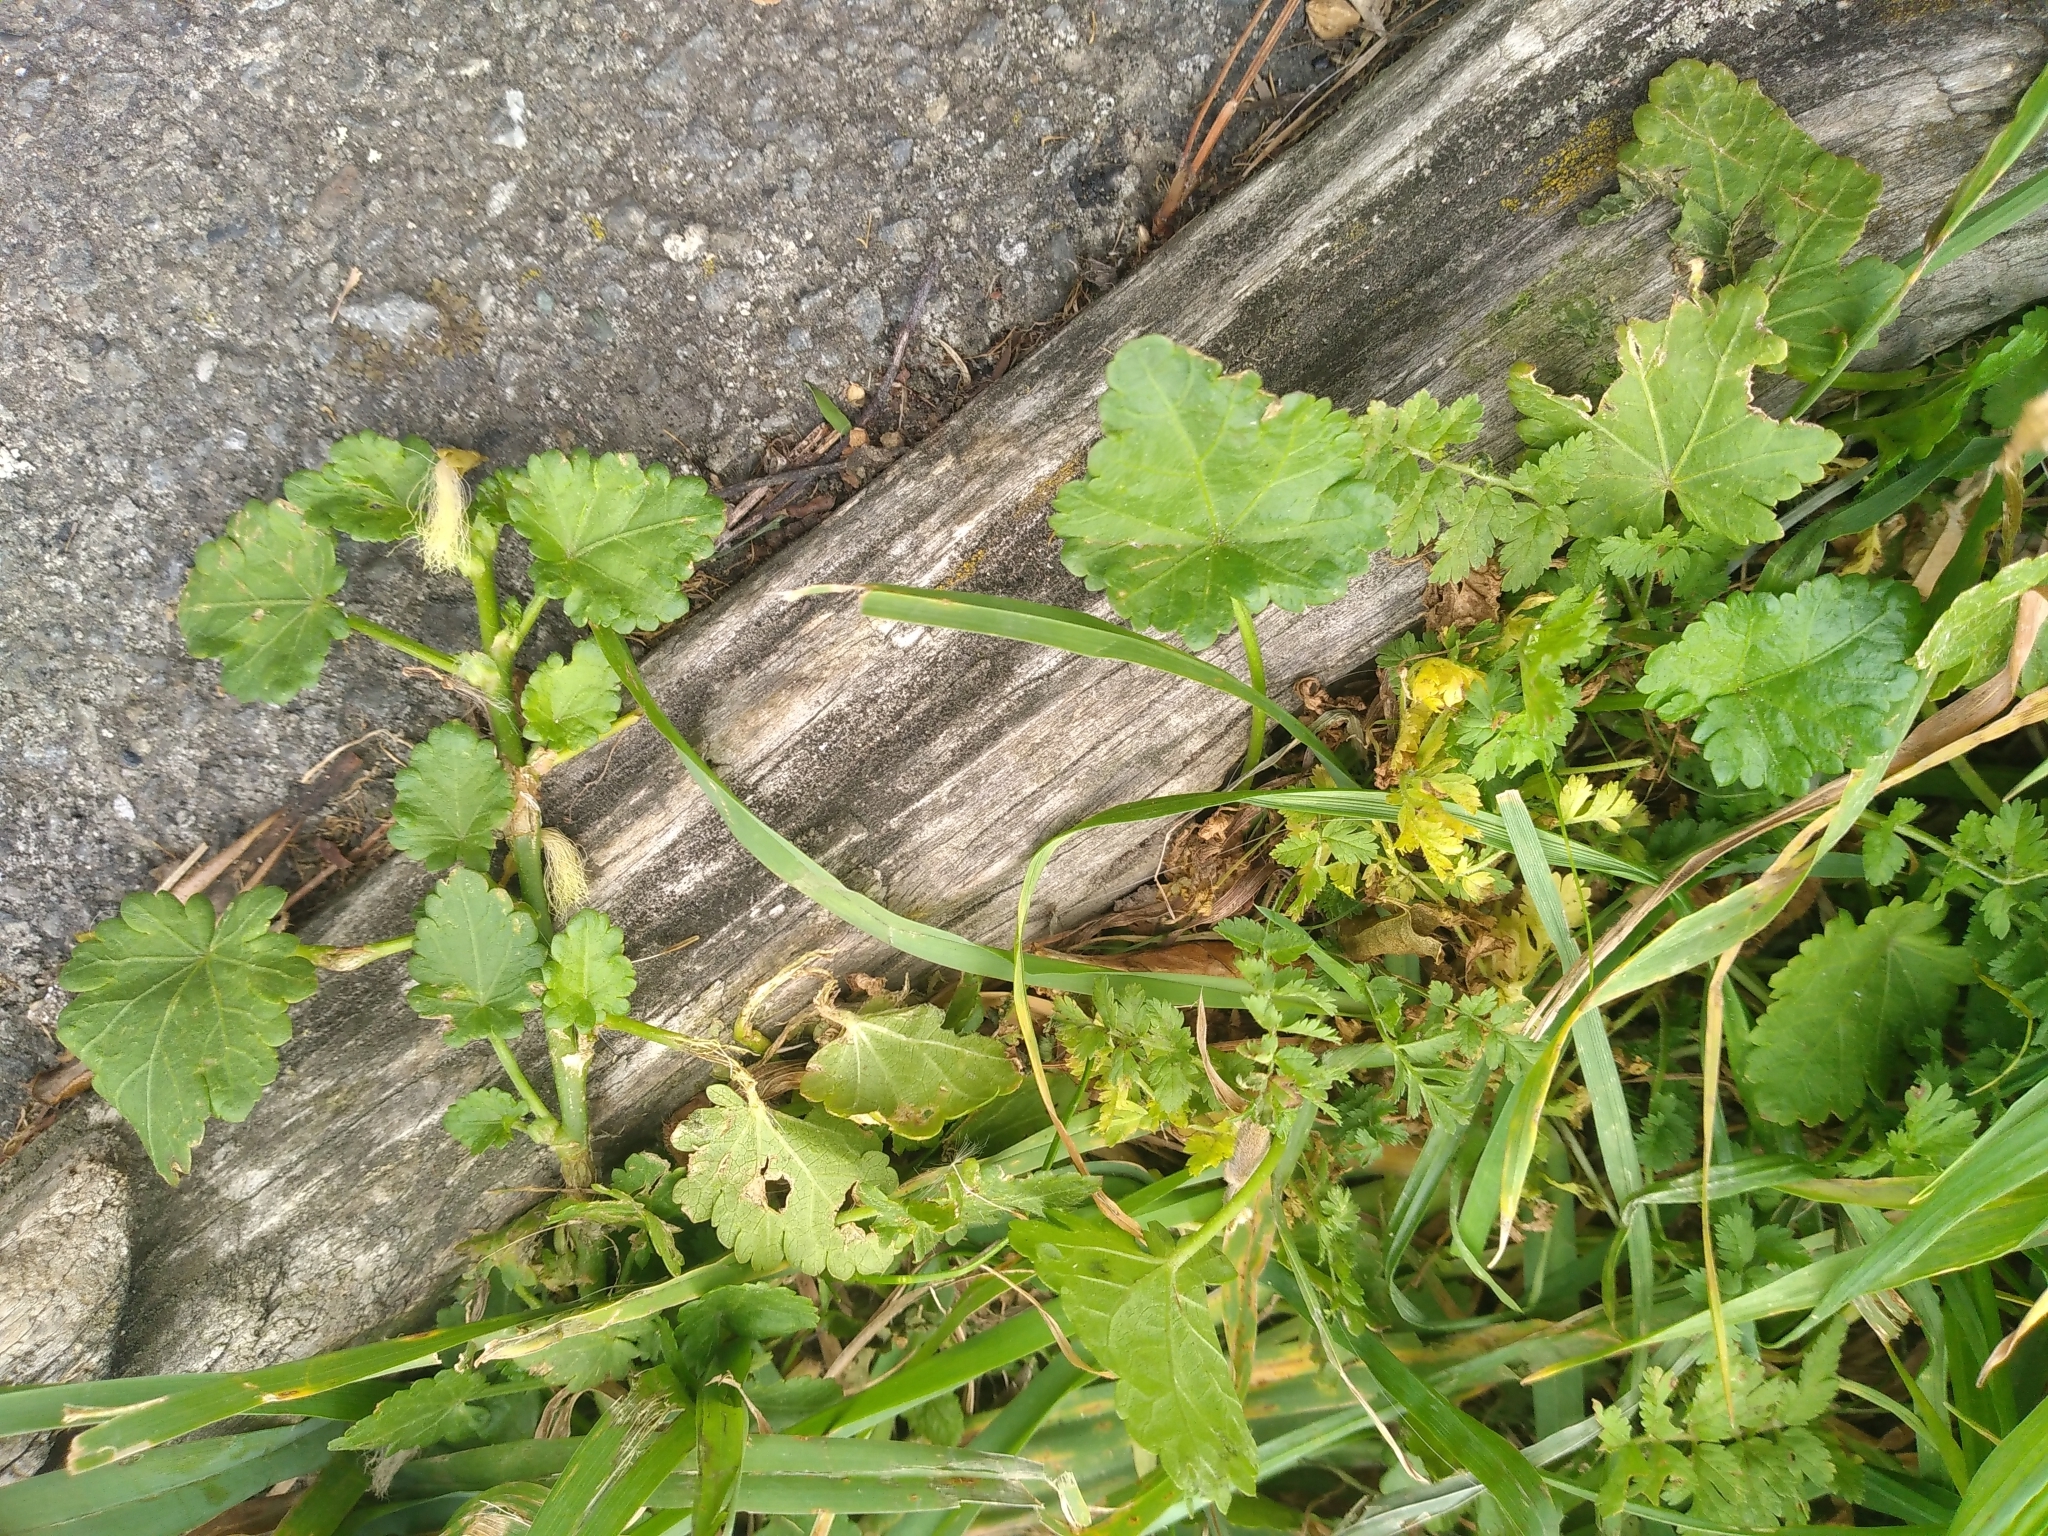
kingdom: Plantae
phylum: Tracheophyta
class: Magnoliopsida
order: Malvales
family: Malvaceae
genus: Modiola
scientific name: Modiola caroliniana
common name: Carolina bristlemallow
